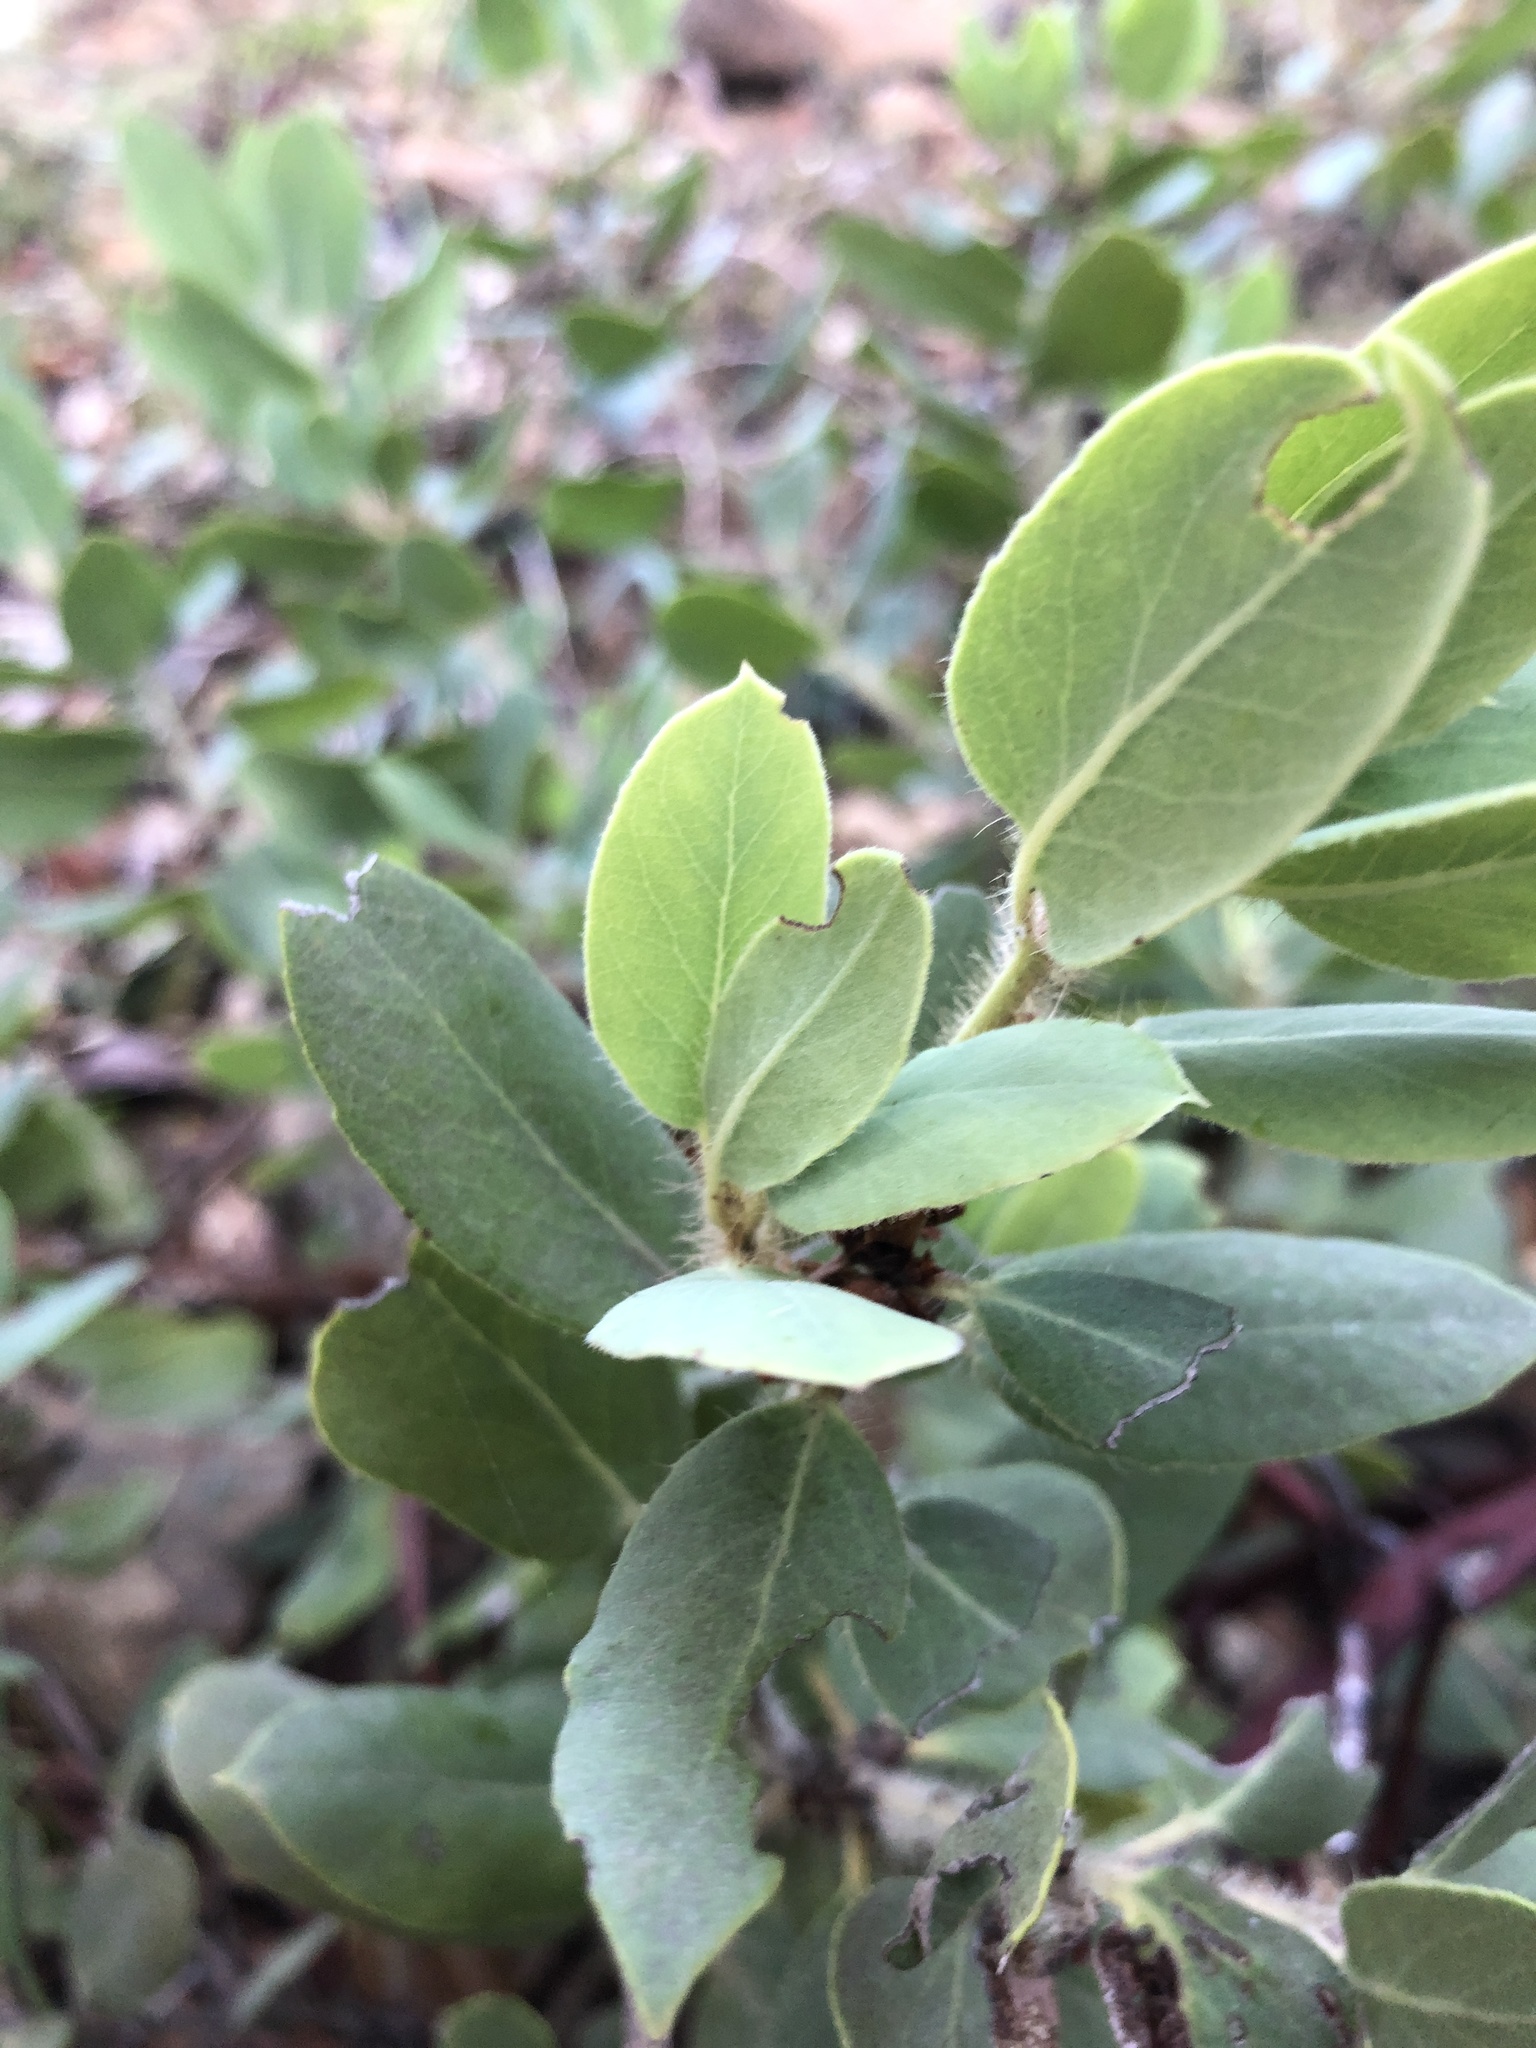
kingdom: Plantae
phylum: Tracheophyta
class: Magnoliopsida
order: Ericales
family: Ericaceae
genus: Arctostaphylos
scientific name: Arctostaphylos crustacea
